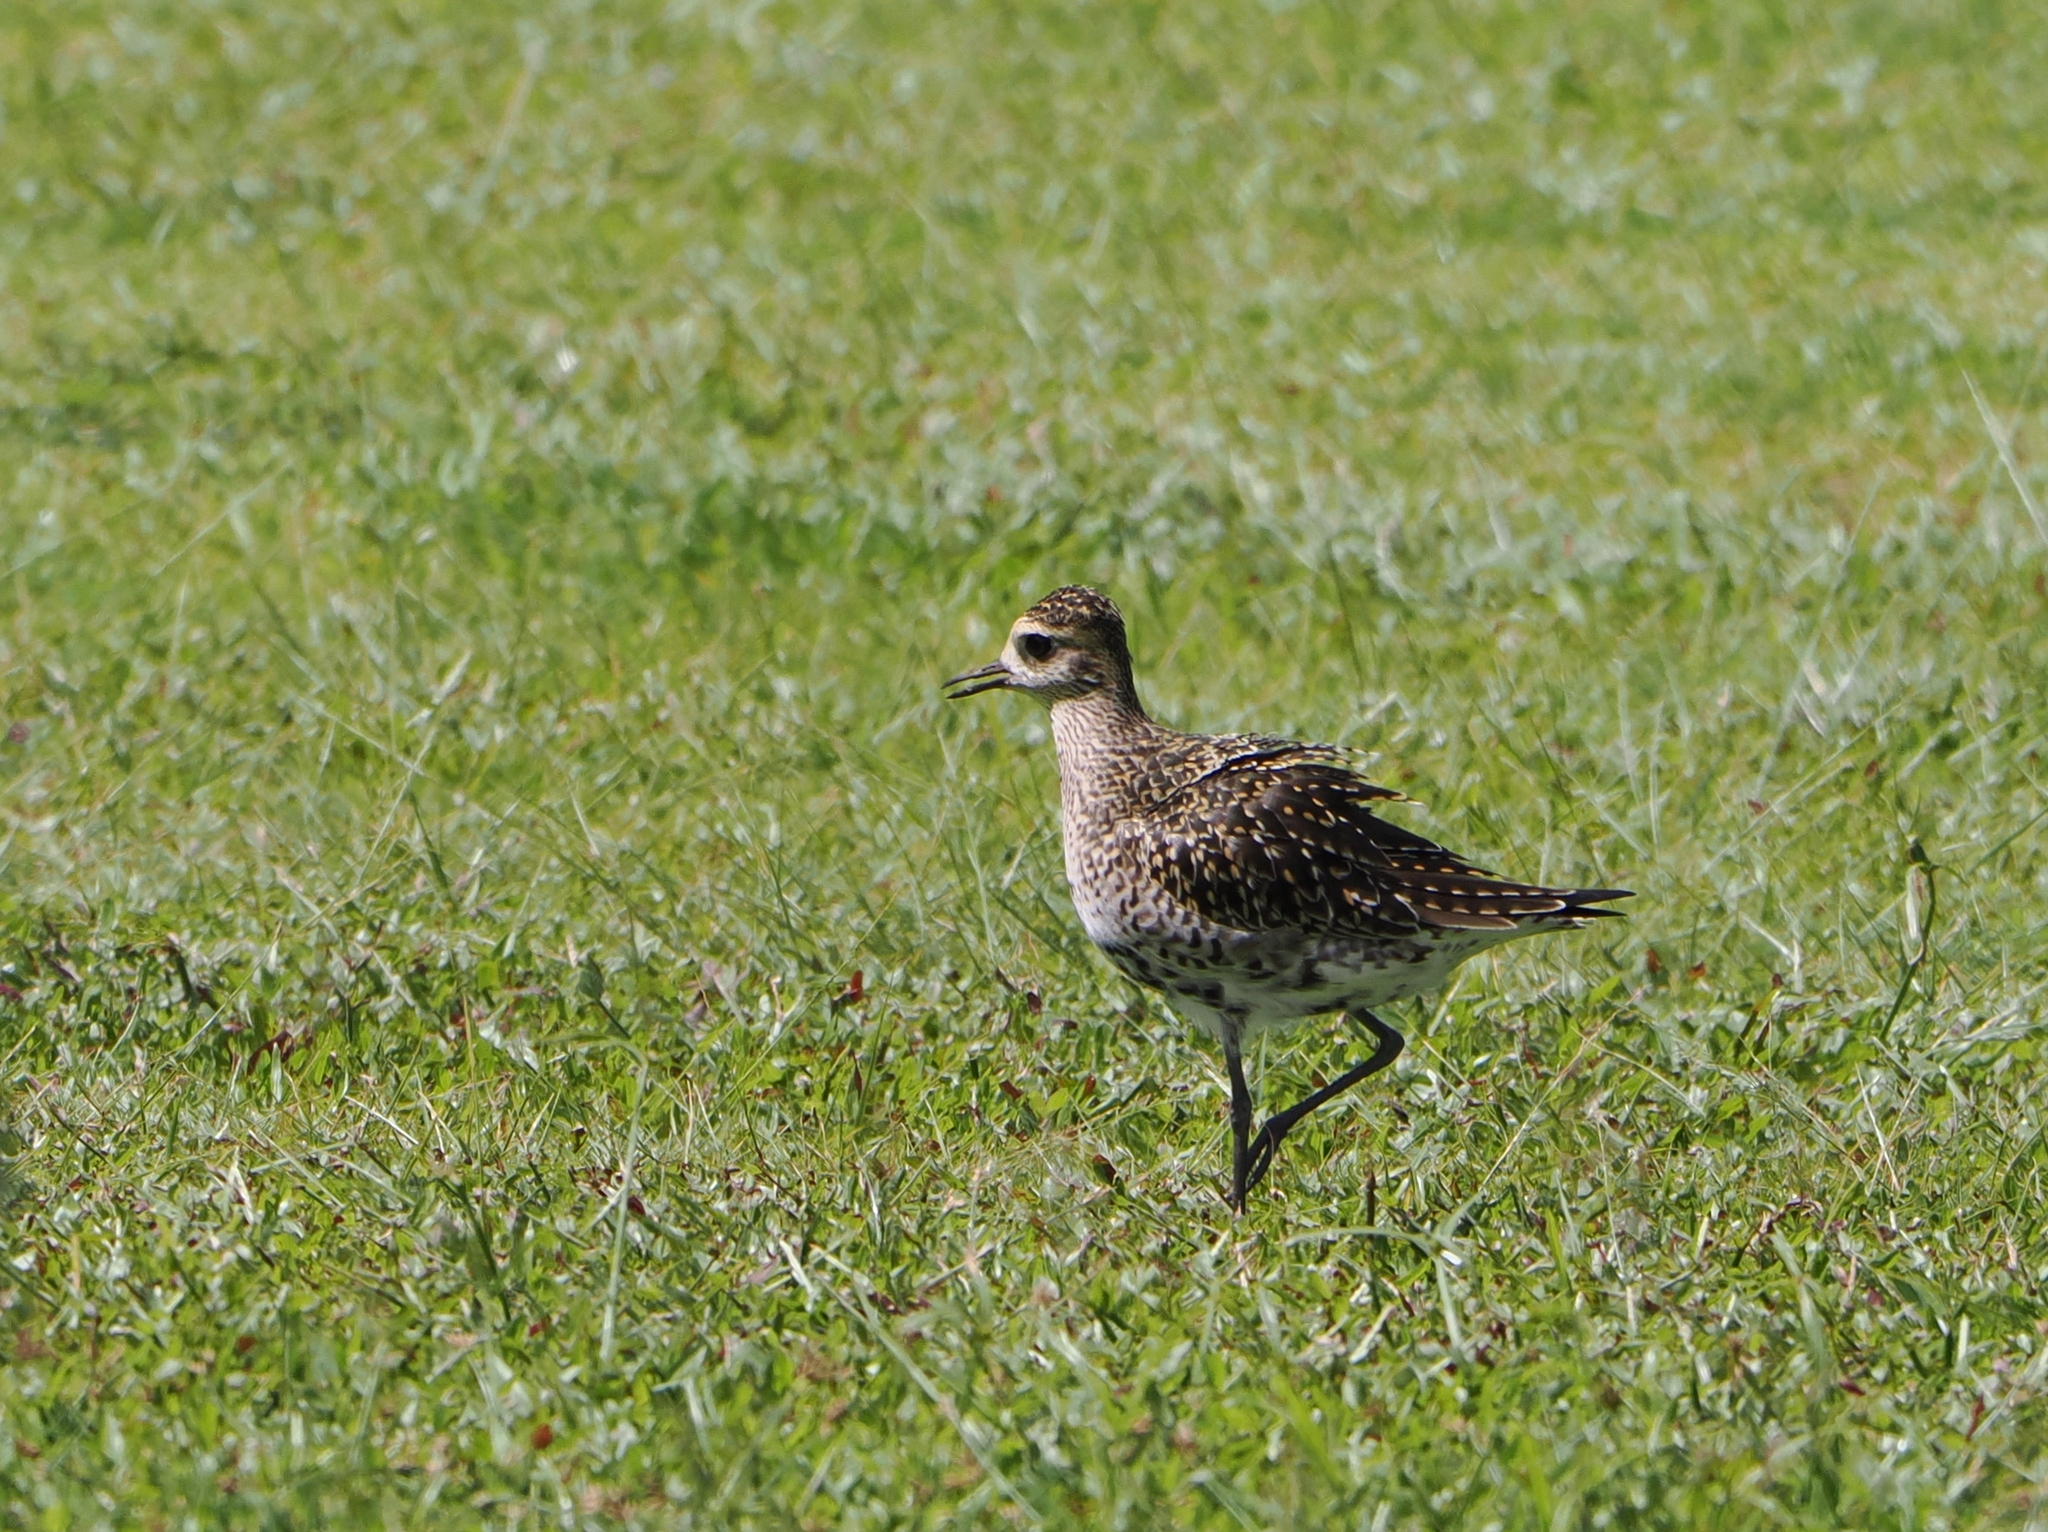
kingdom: Animalia
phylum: Chordata
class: Aves
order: Charadriiformes
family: Charadriidae
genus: Pluvialis
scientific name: Pluvialis fulva
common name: Pacific golden plover
